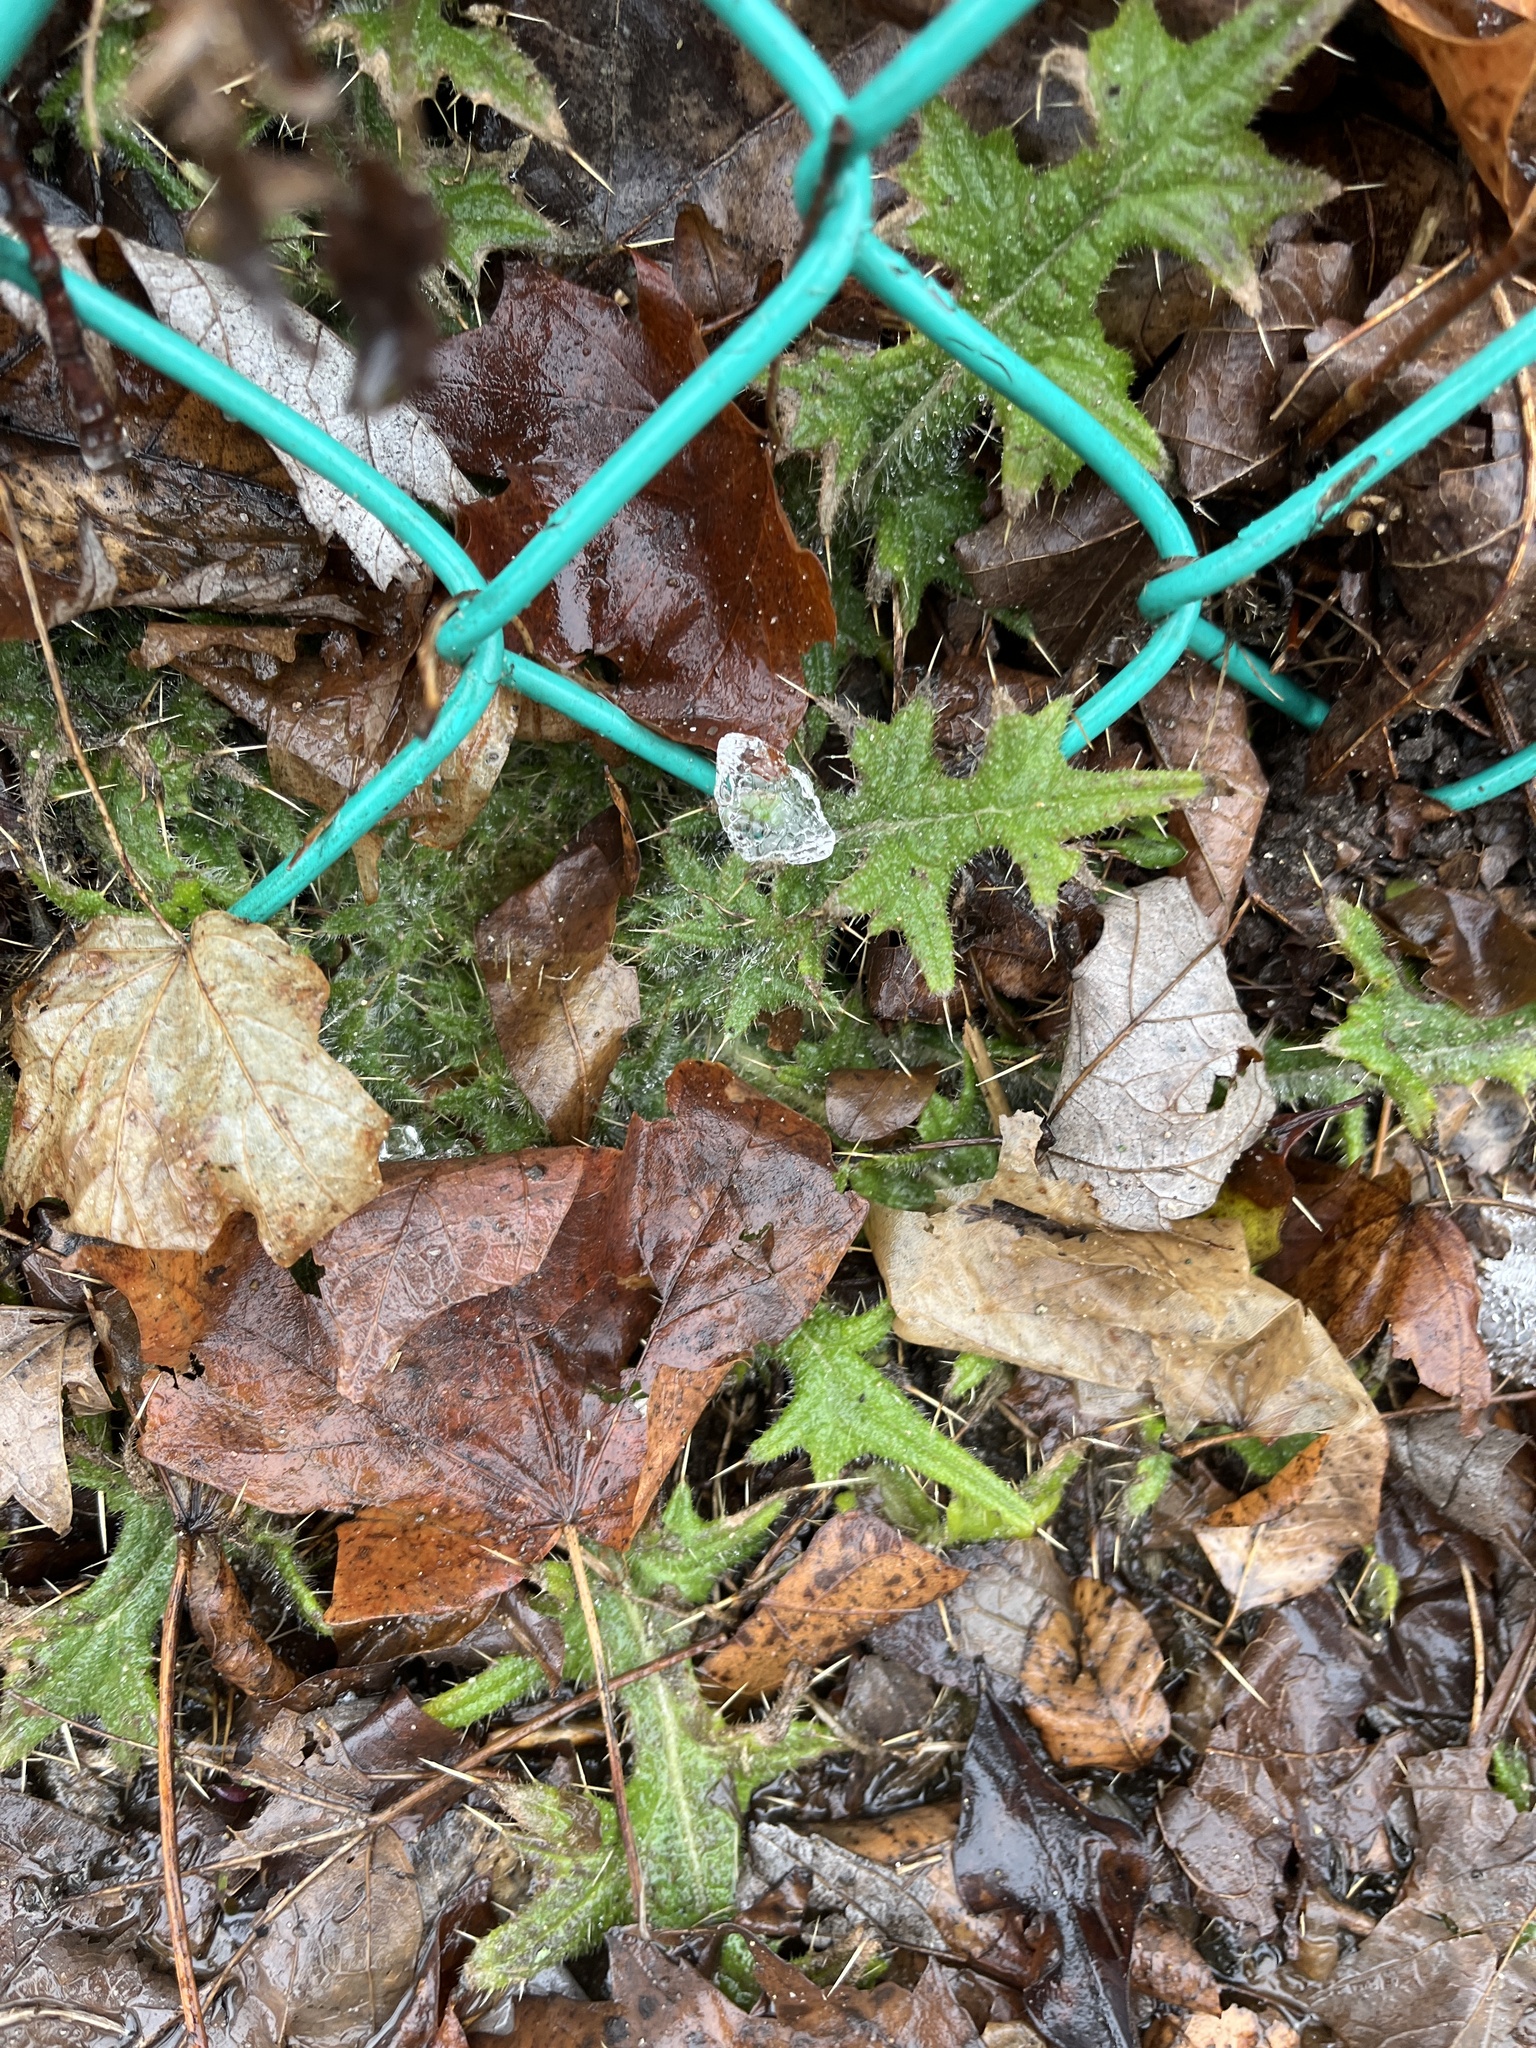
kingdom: Plantae
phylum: Tracheophyta
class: Magnoliopsida
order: Asterales
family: Asteraceae
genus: Cirsium
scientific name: Cirsium vulgare
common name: Bull thistle
